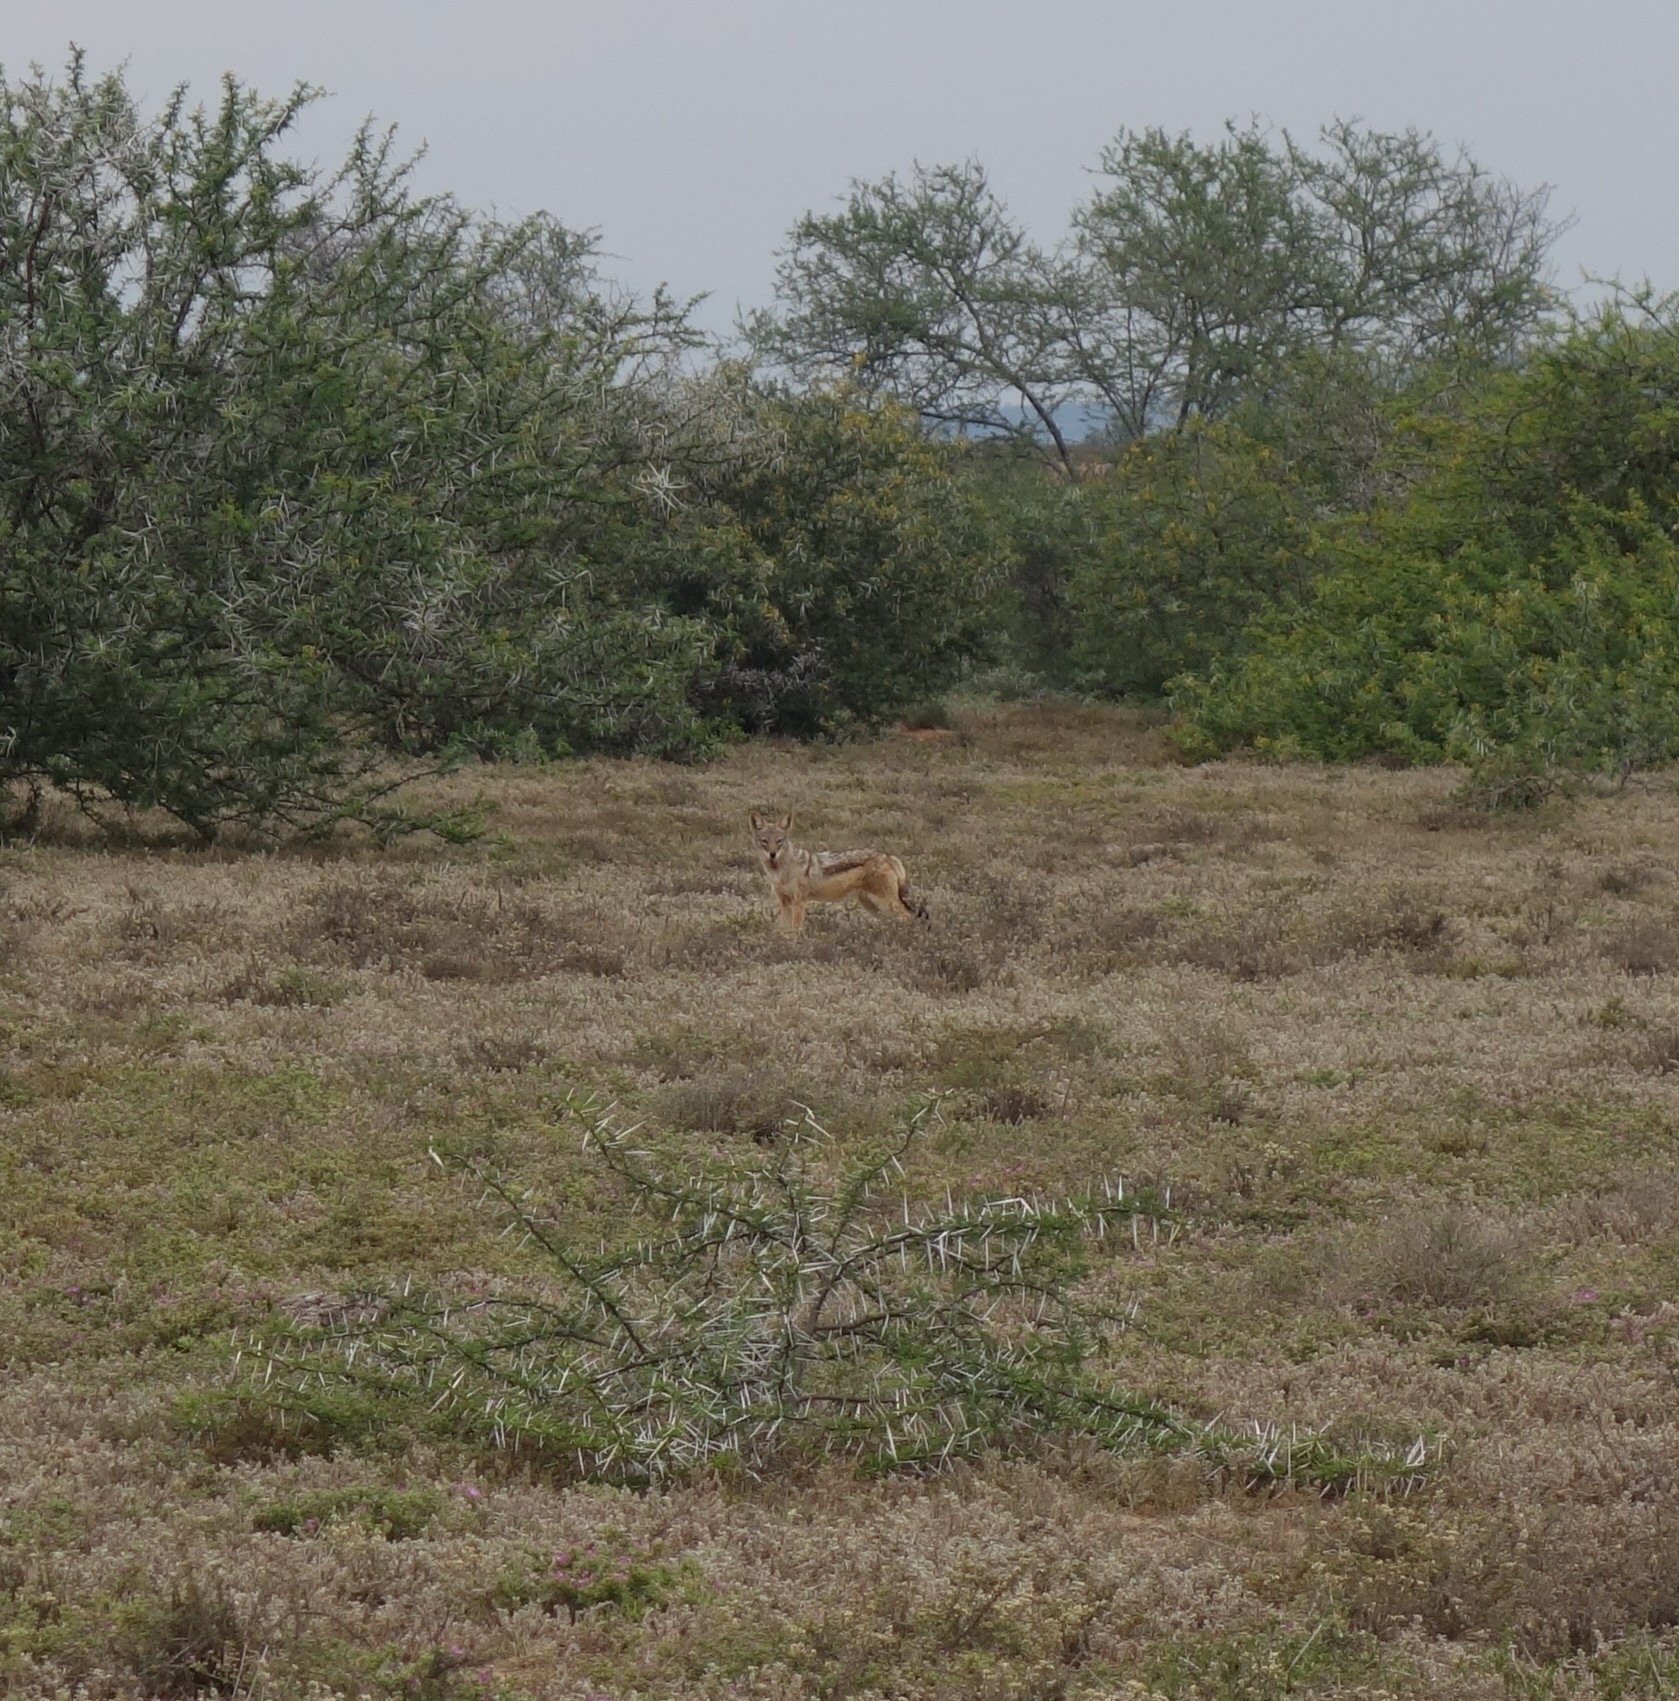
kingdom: Animalia
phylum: Chordata
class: Mammalia
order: Carnivora
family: Canidae
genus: Lupulella
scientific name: Lupulella
